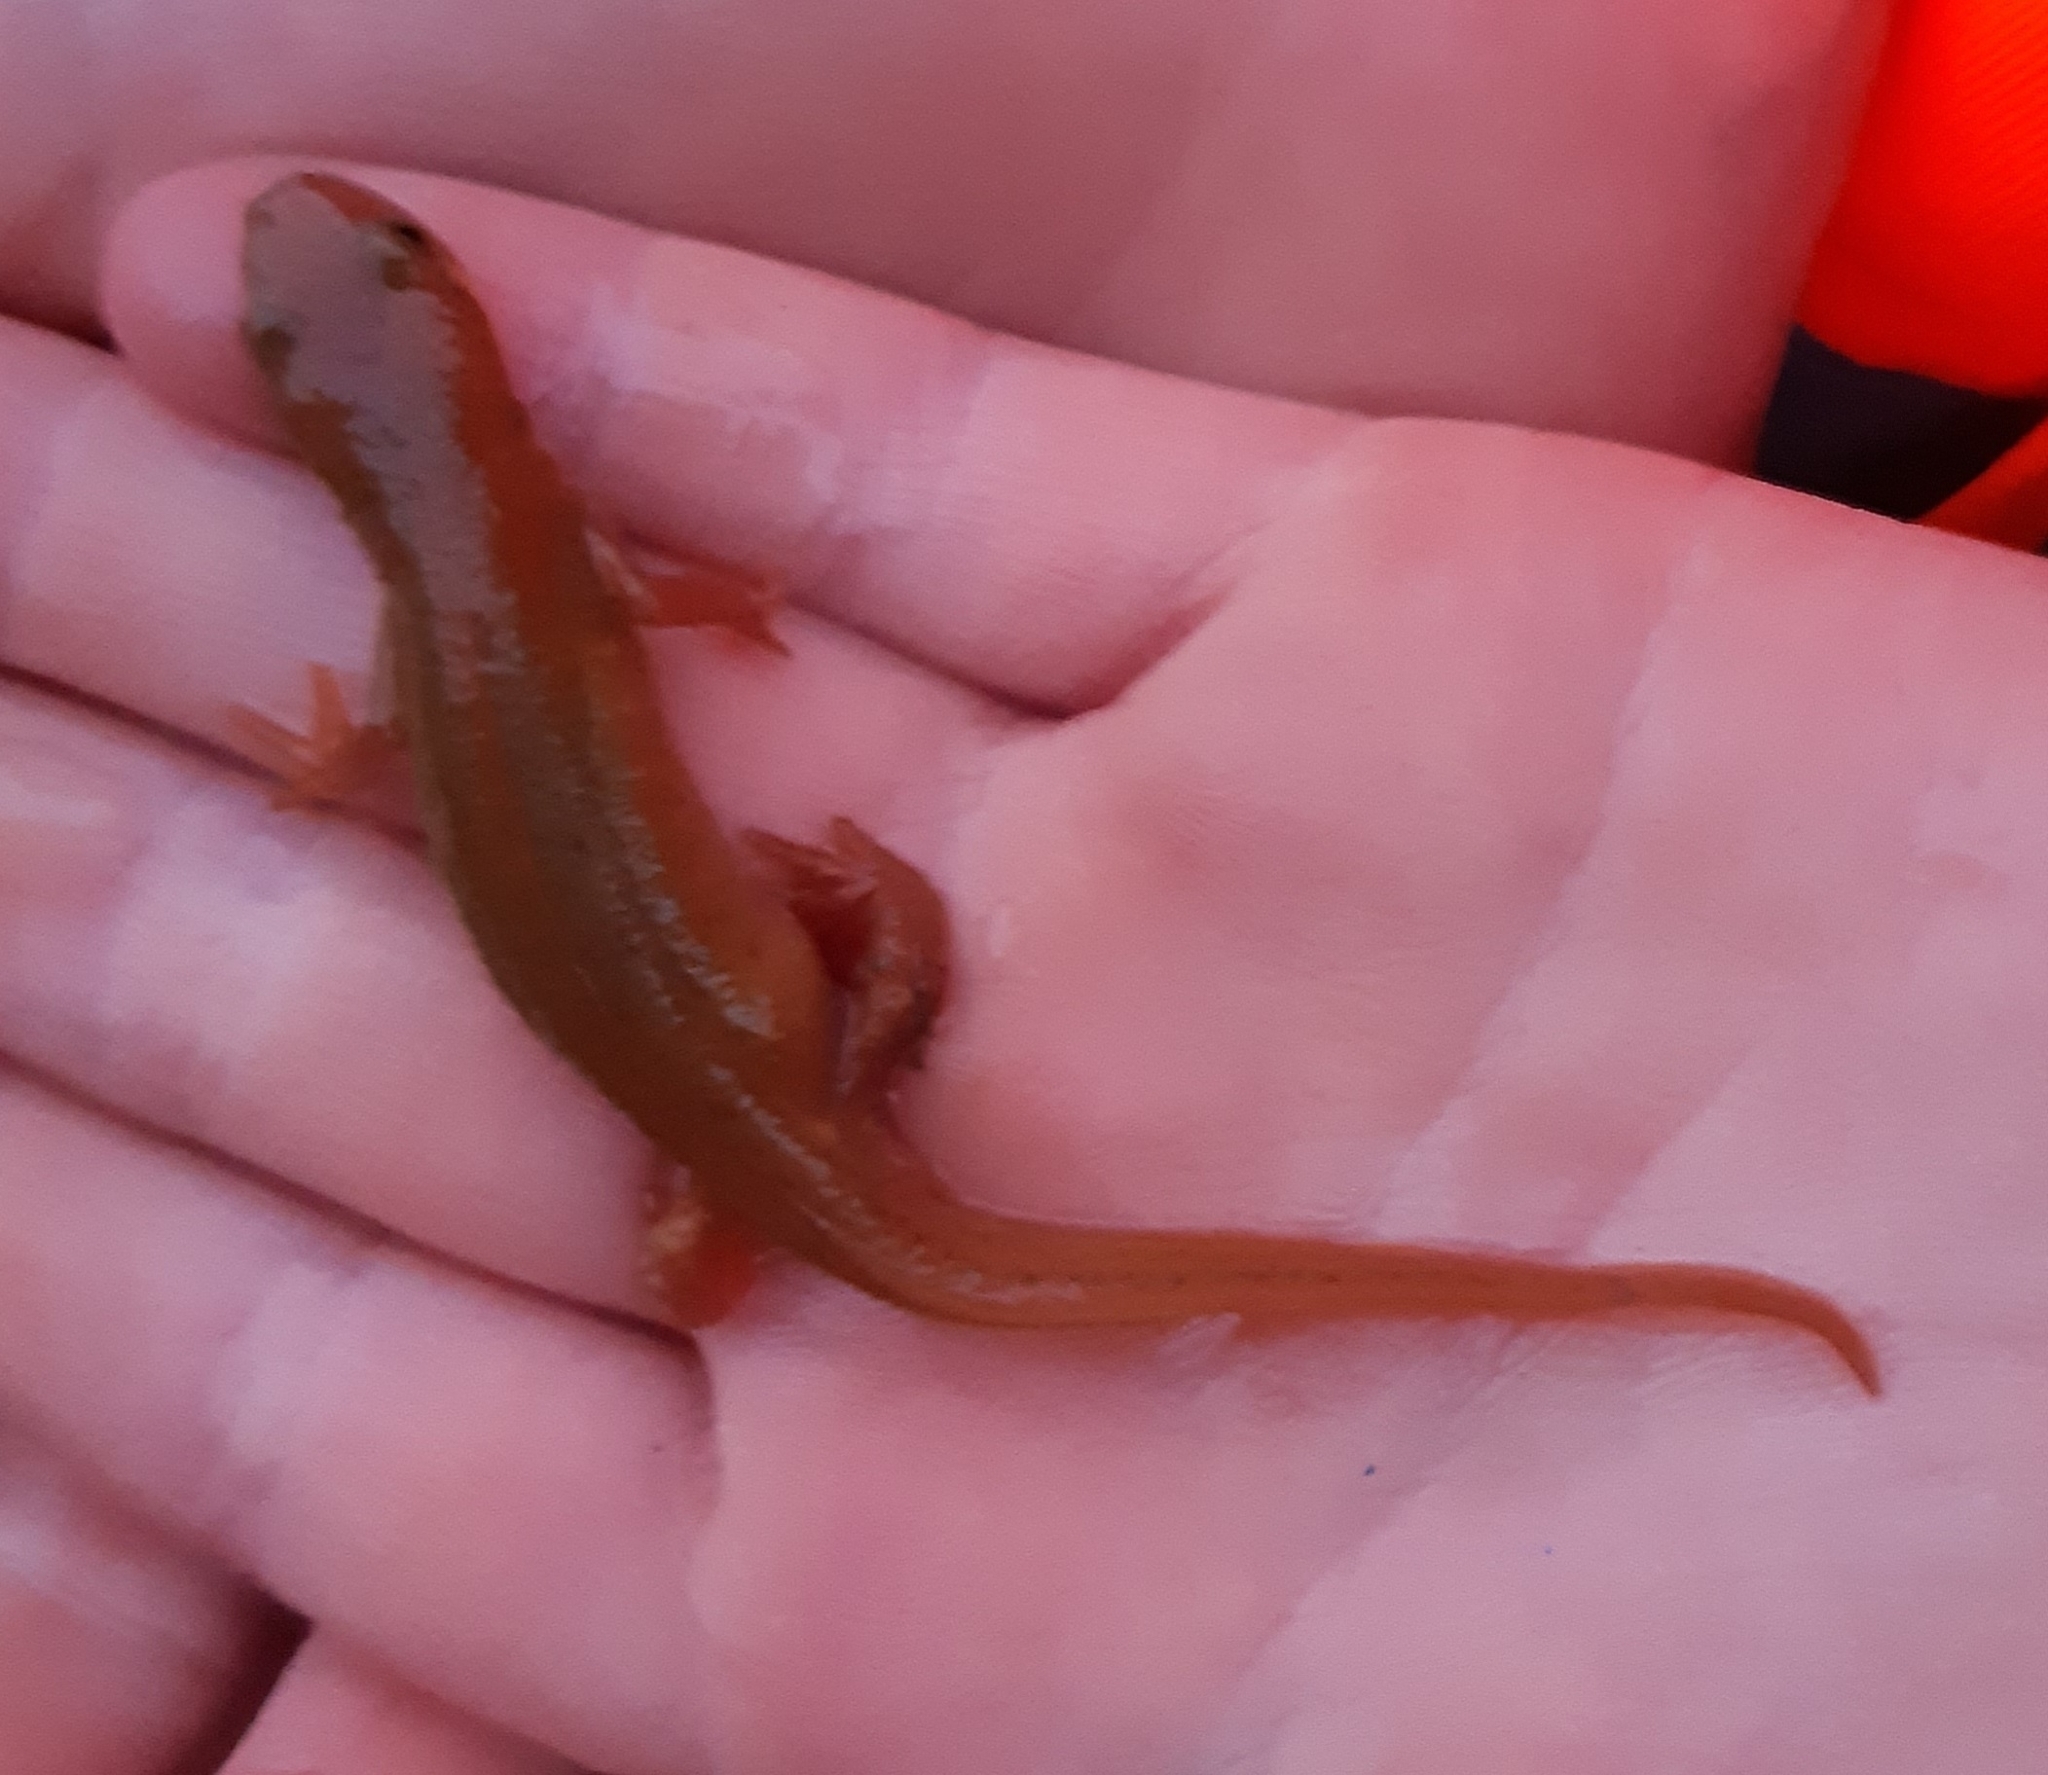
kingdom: Animalia
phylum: Chordata
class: Amphibia
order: Caudata
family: Salamandridae
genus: Lissotriton
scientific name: Lissotriton helveticus
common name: Palmate newt
